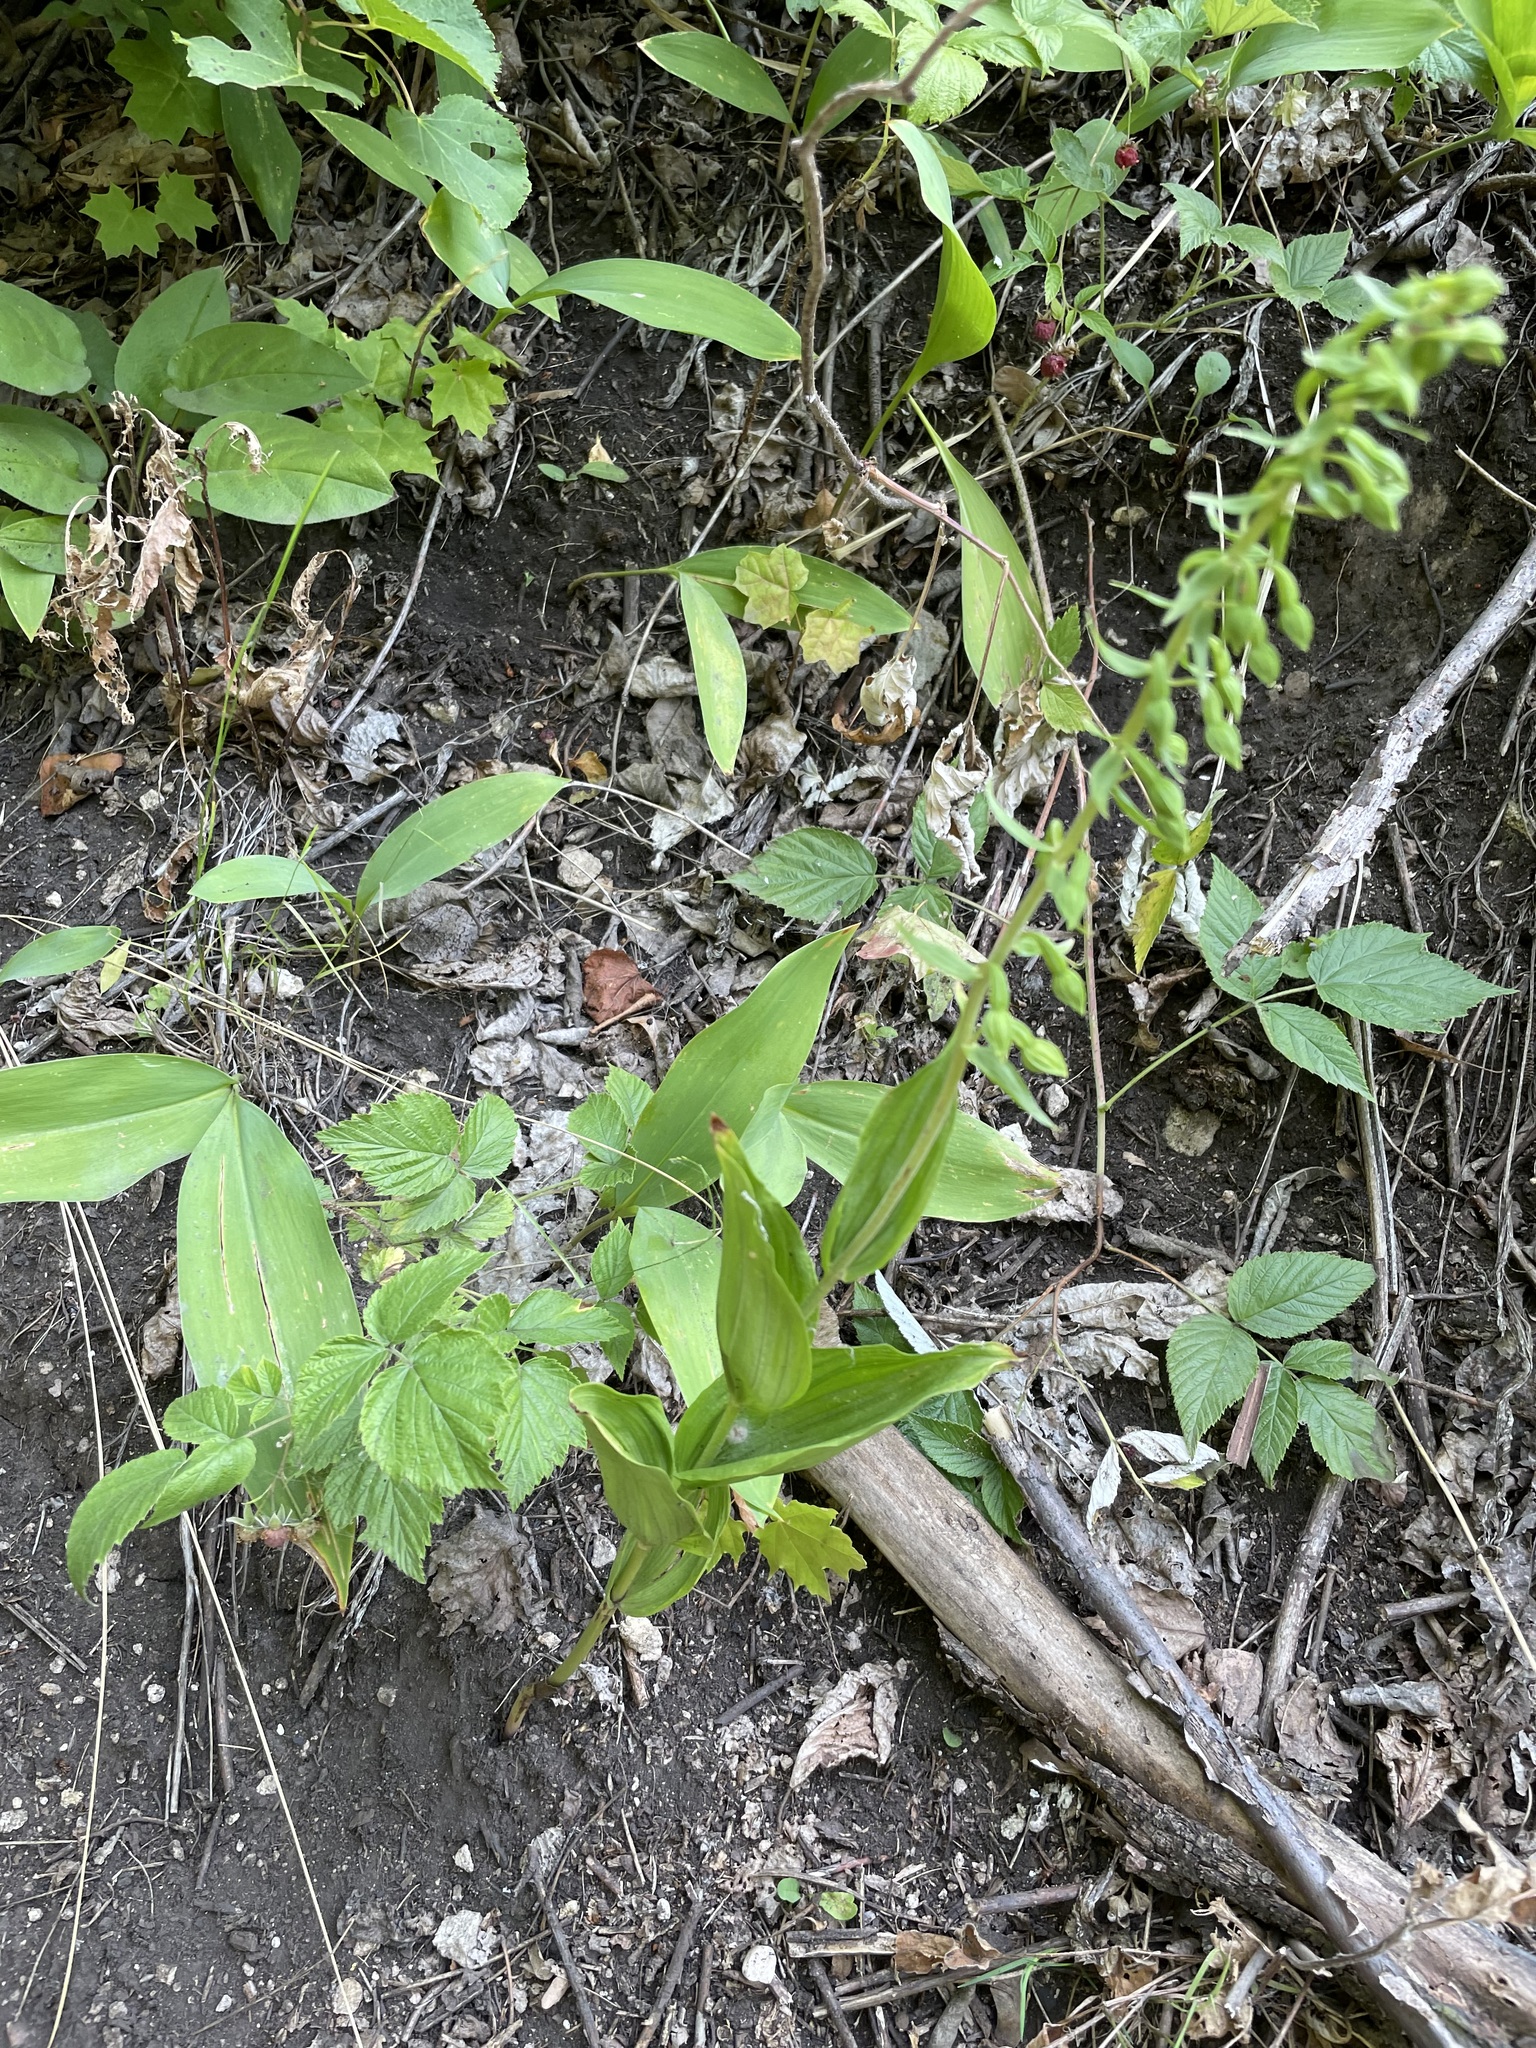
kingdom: Plantae
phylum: Tracheophyta
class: Liliopsida
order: Asparagales
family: Orchidaceae
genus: Epipactis
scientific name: Epipactis helleborine
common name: Broad-leaved helleborine
